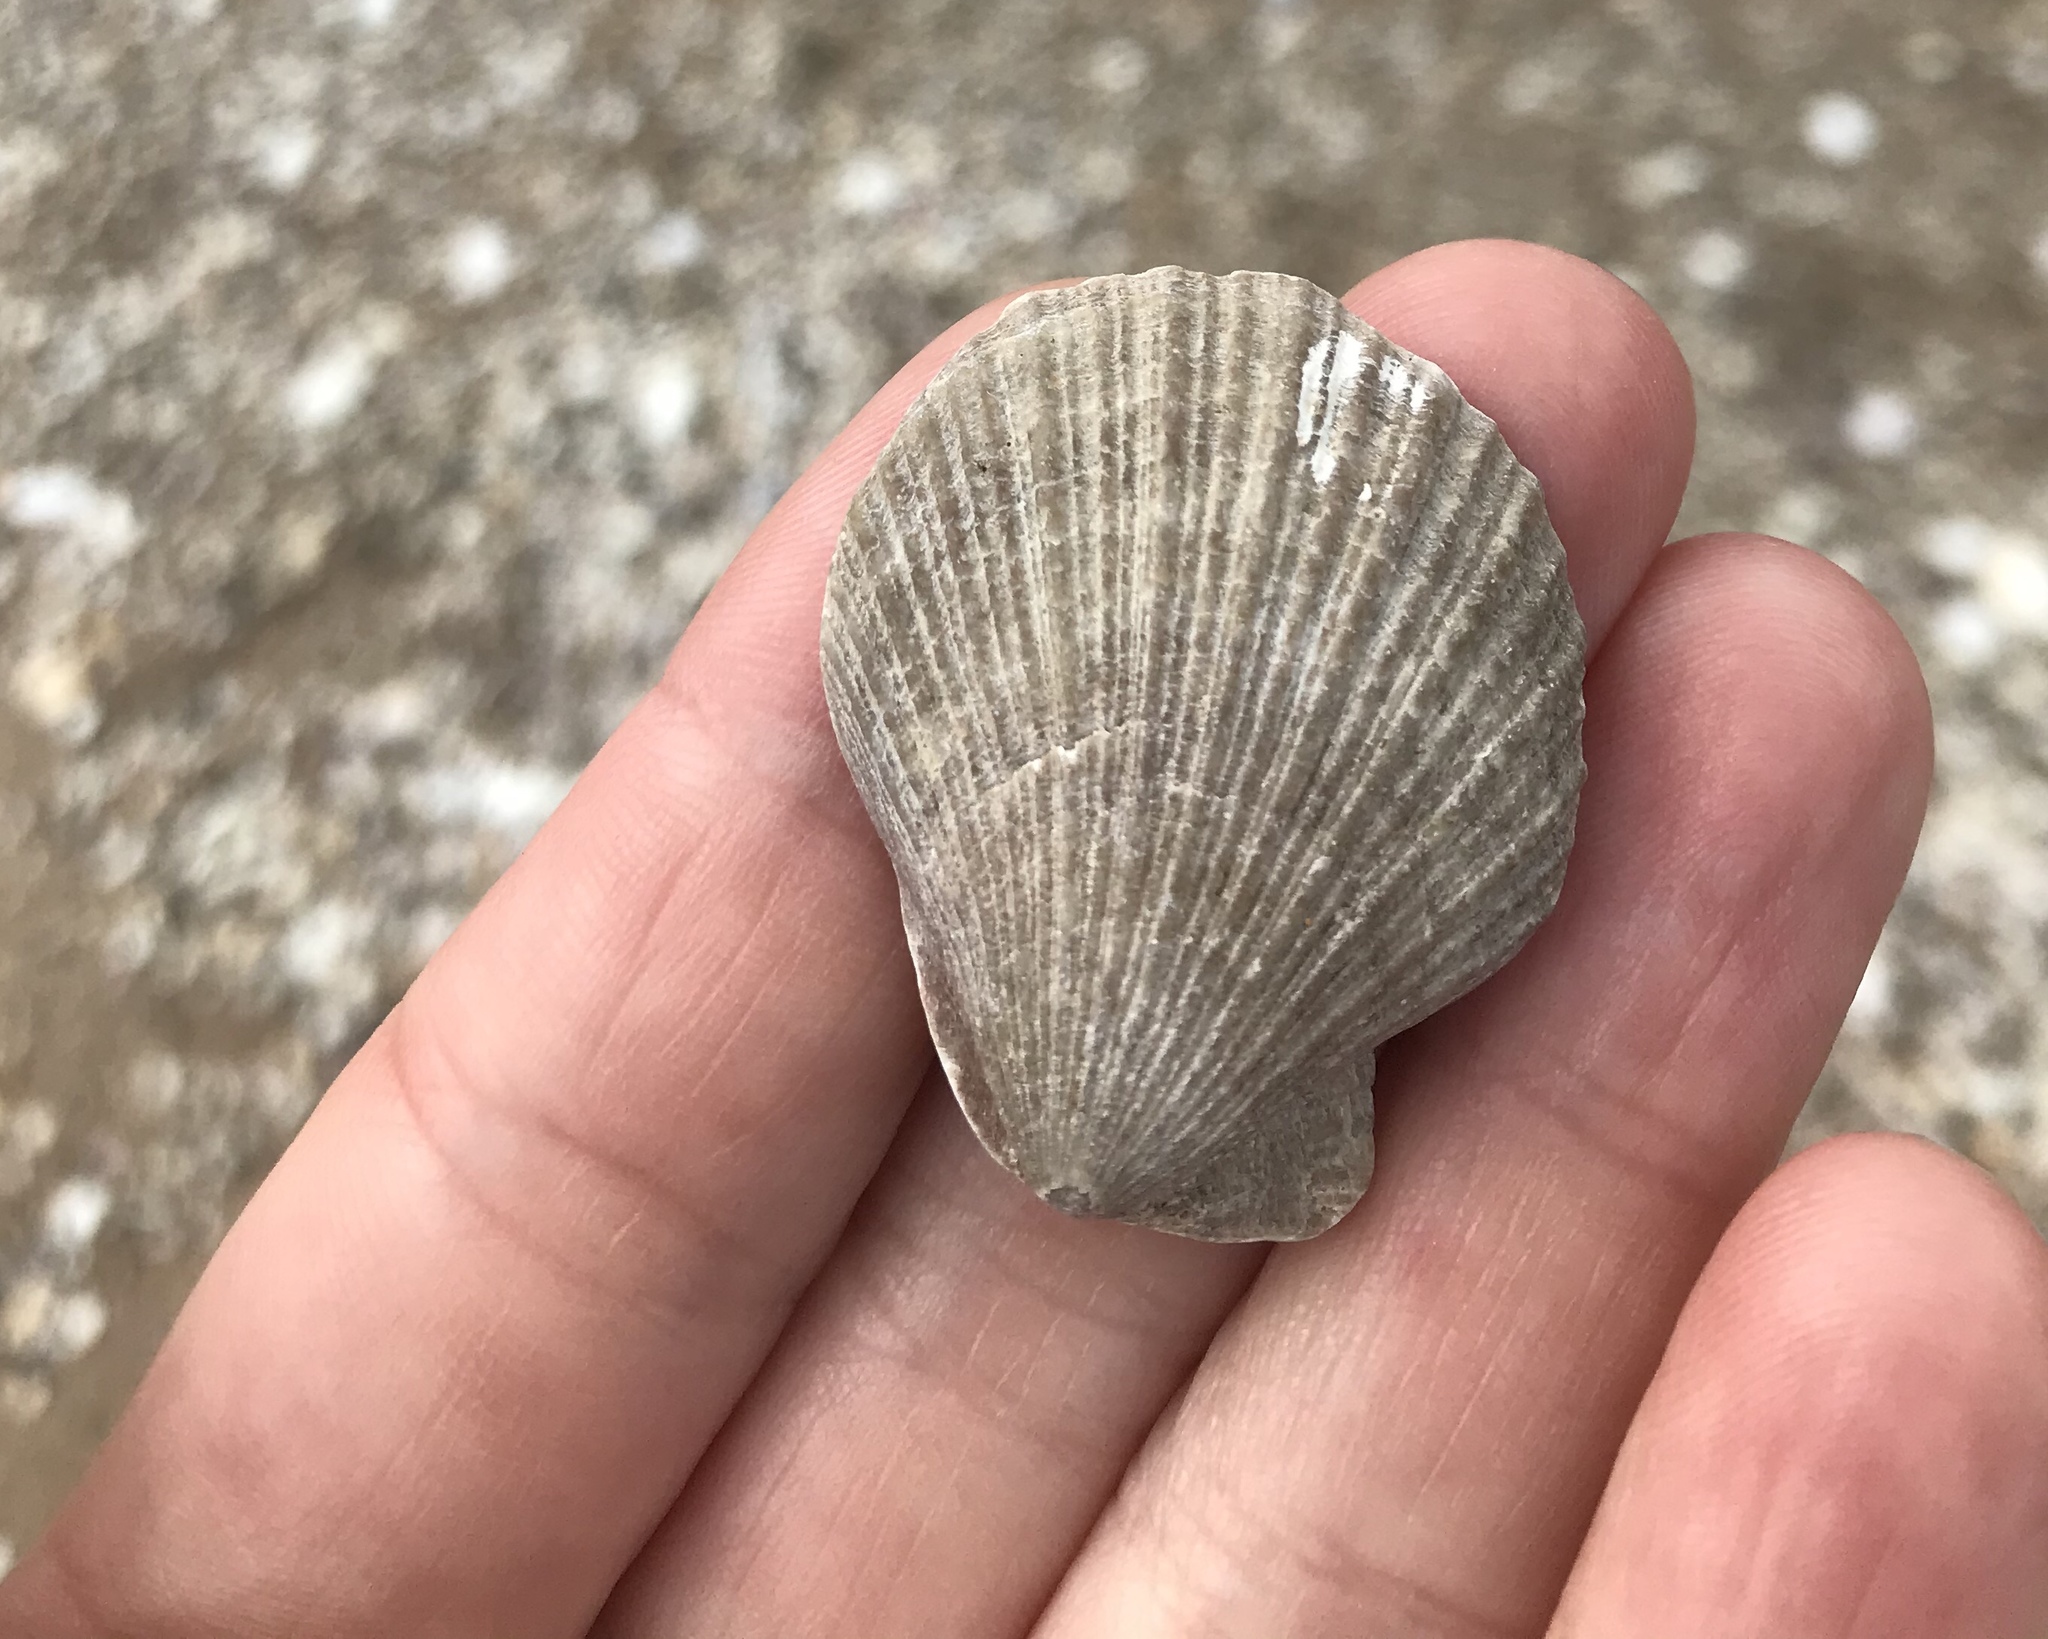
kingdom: Animalia
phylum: Mollusca
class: Bivalvia
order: Pectinida
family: Pectinidae
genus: Talochlamys
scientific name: Talochlamys zelandiae
